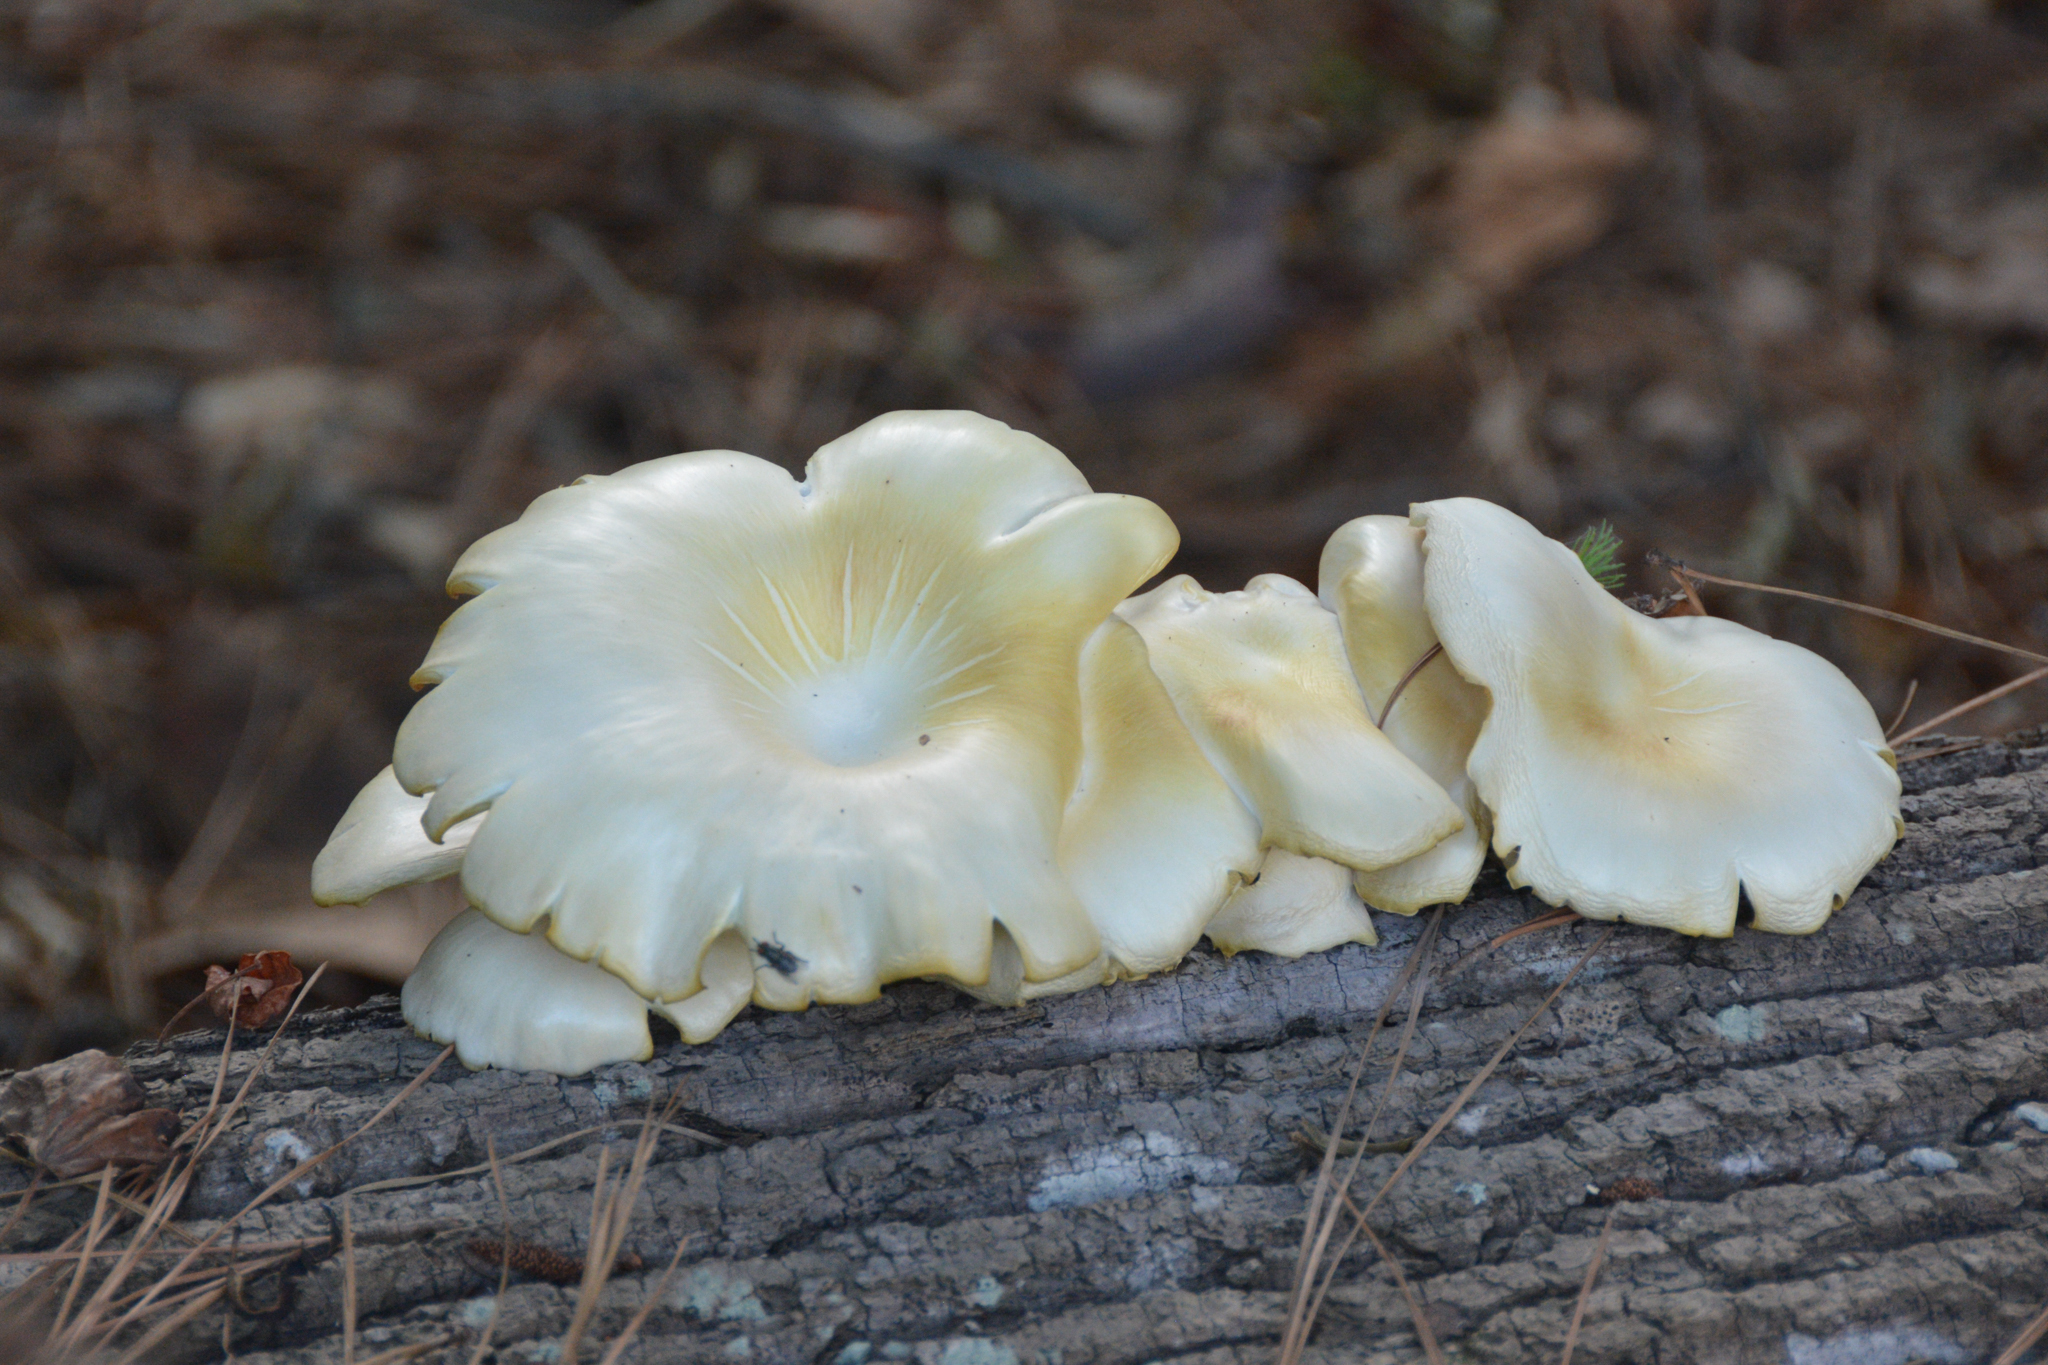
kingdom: Fungi
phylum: Basidiomycota
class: Agaricomycetes
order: Agaricales
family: Pleurotaceae
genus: Pleurotus
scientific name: Pleurotus pulmonarius
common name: Pale oyster
